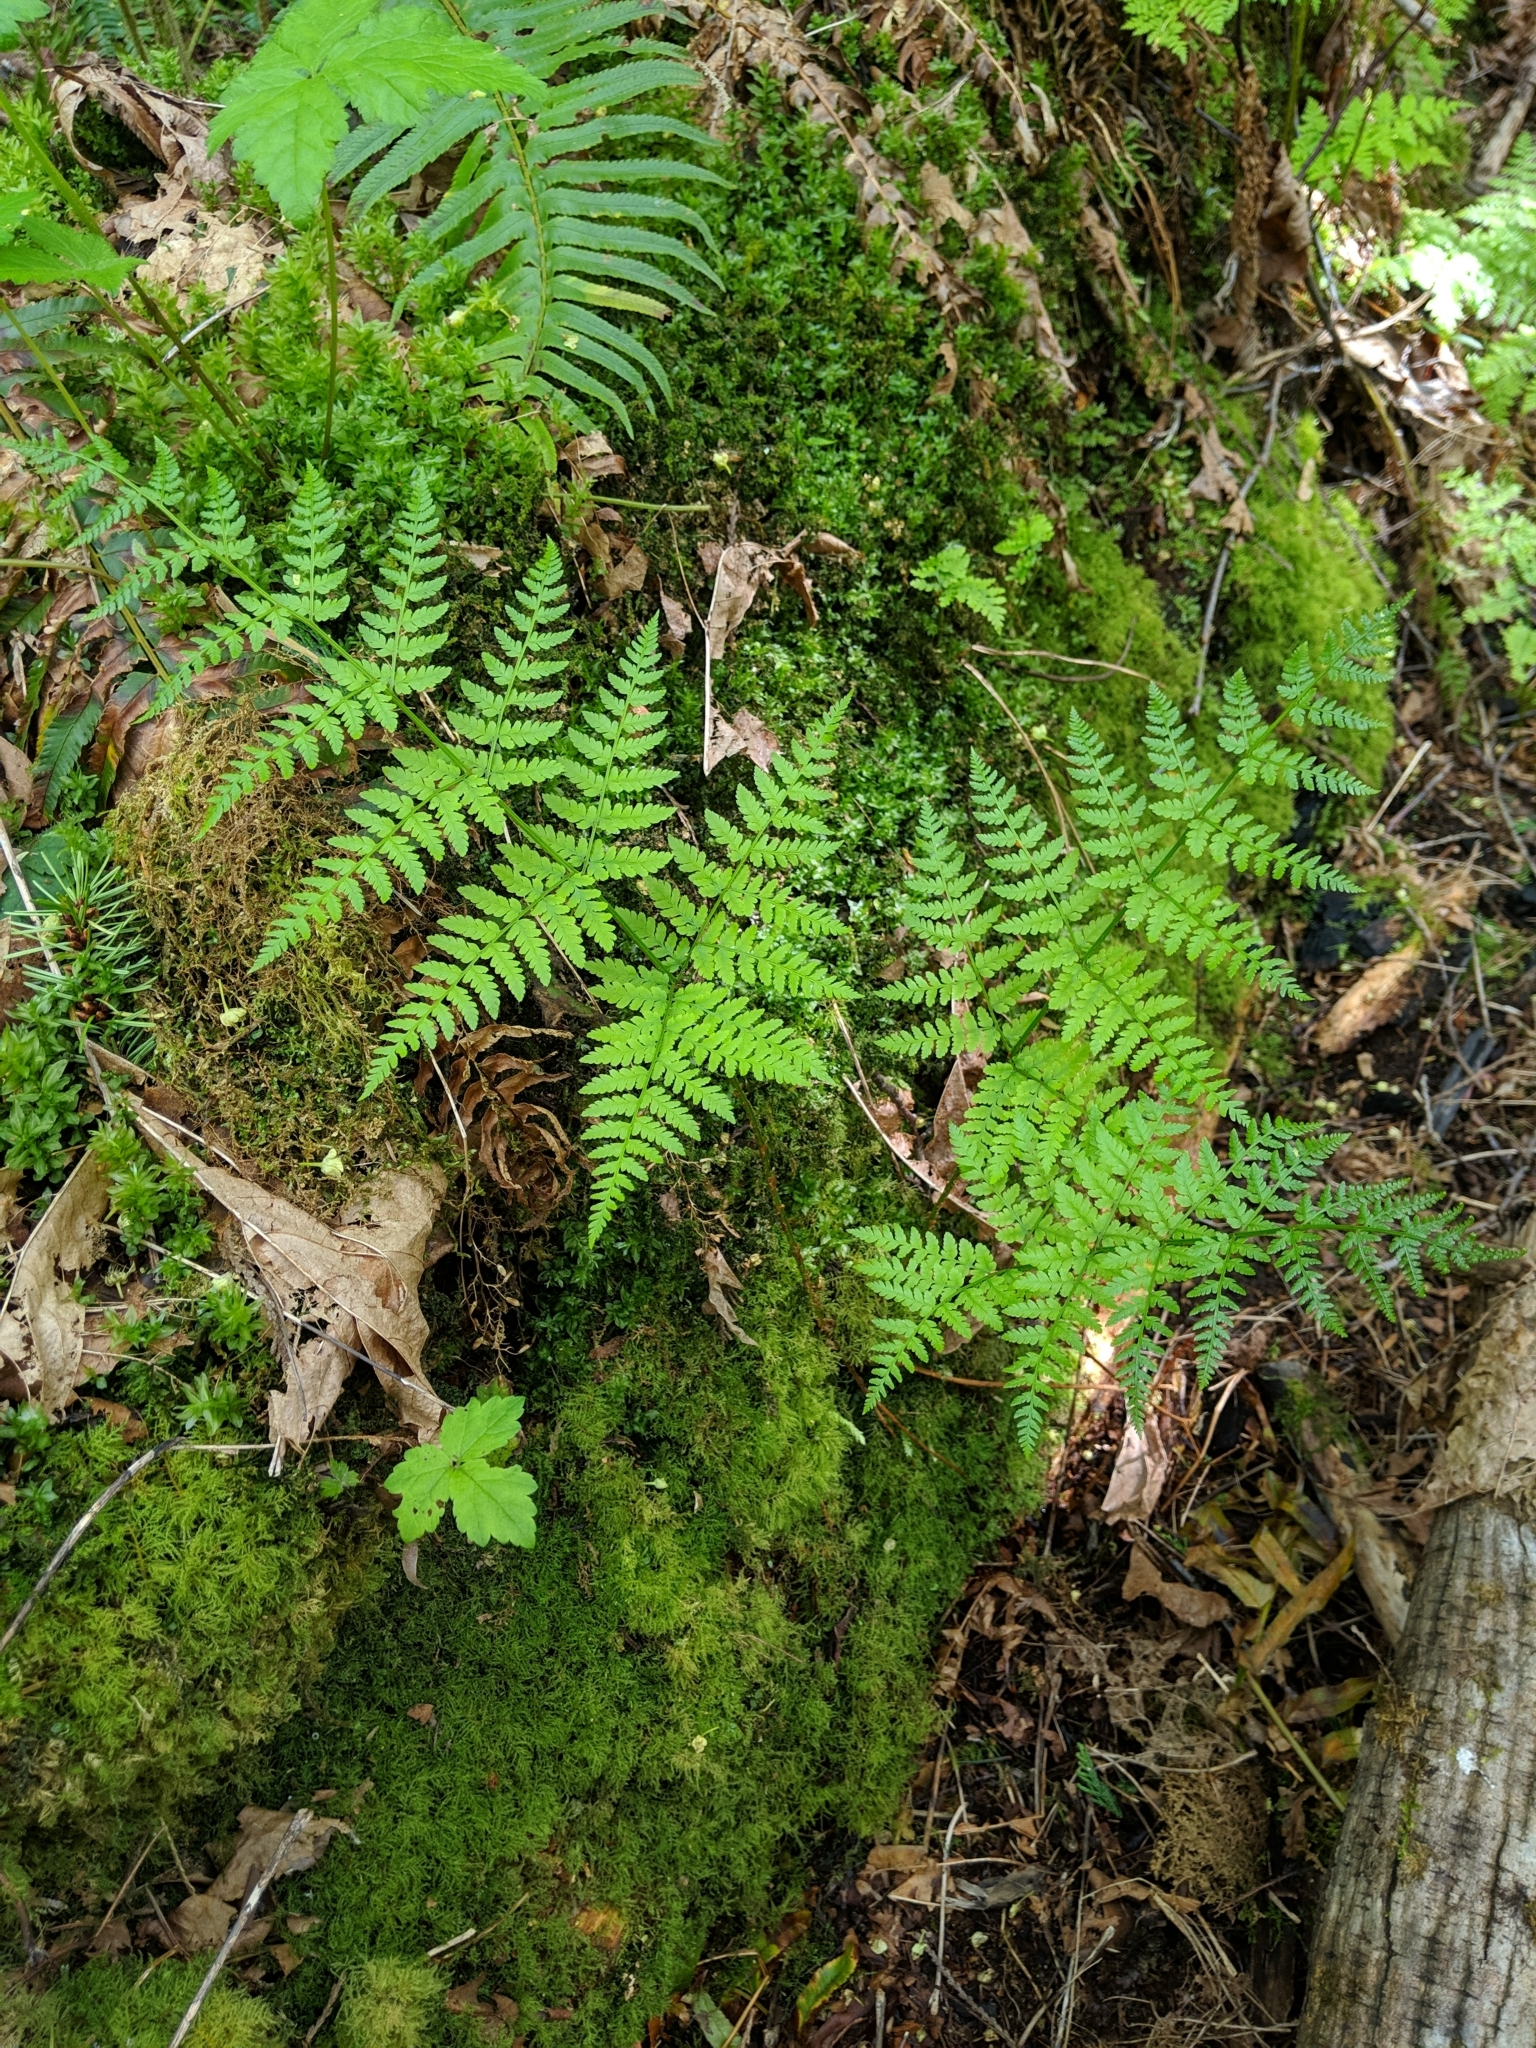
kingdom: Plantae
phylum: Tracheophyta
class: Polypodiopsida
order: Polypodiales
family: Dryopteridaceae
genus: Dryopteris
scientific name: Dryopteris expansa
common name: Northern buckler fern
